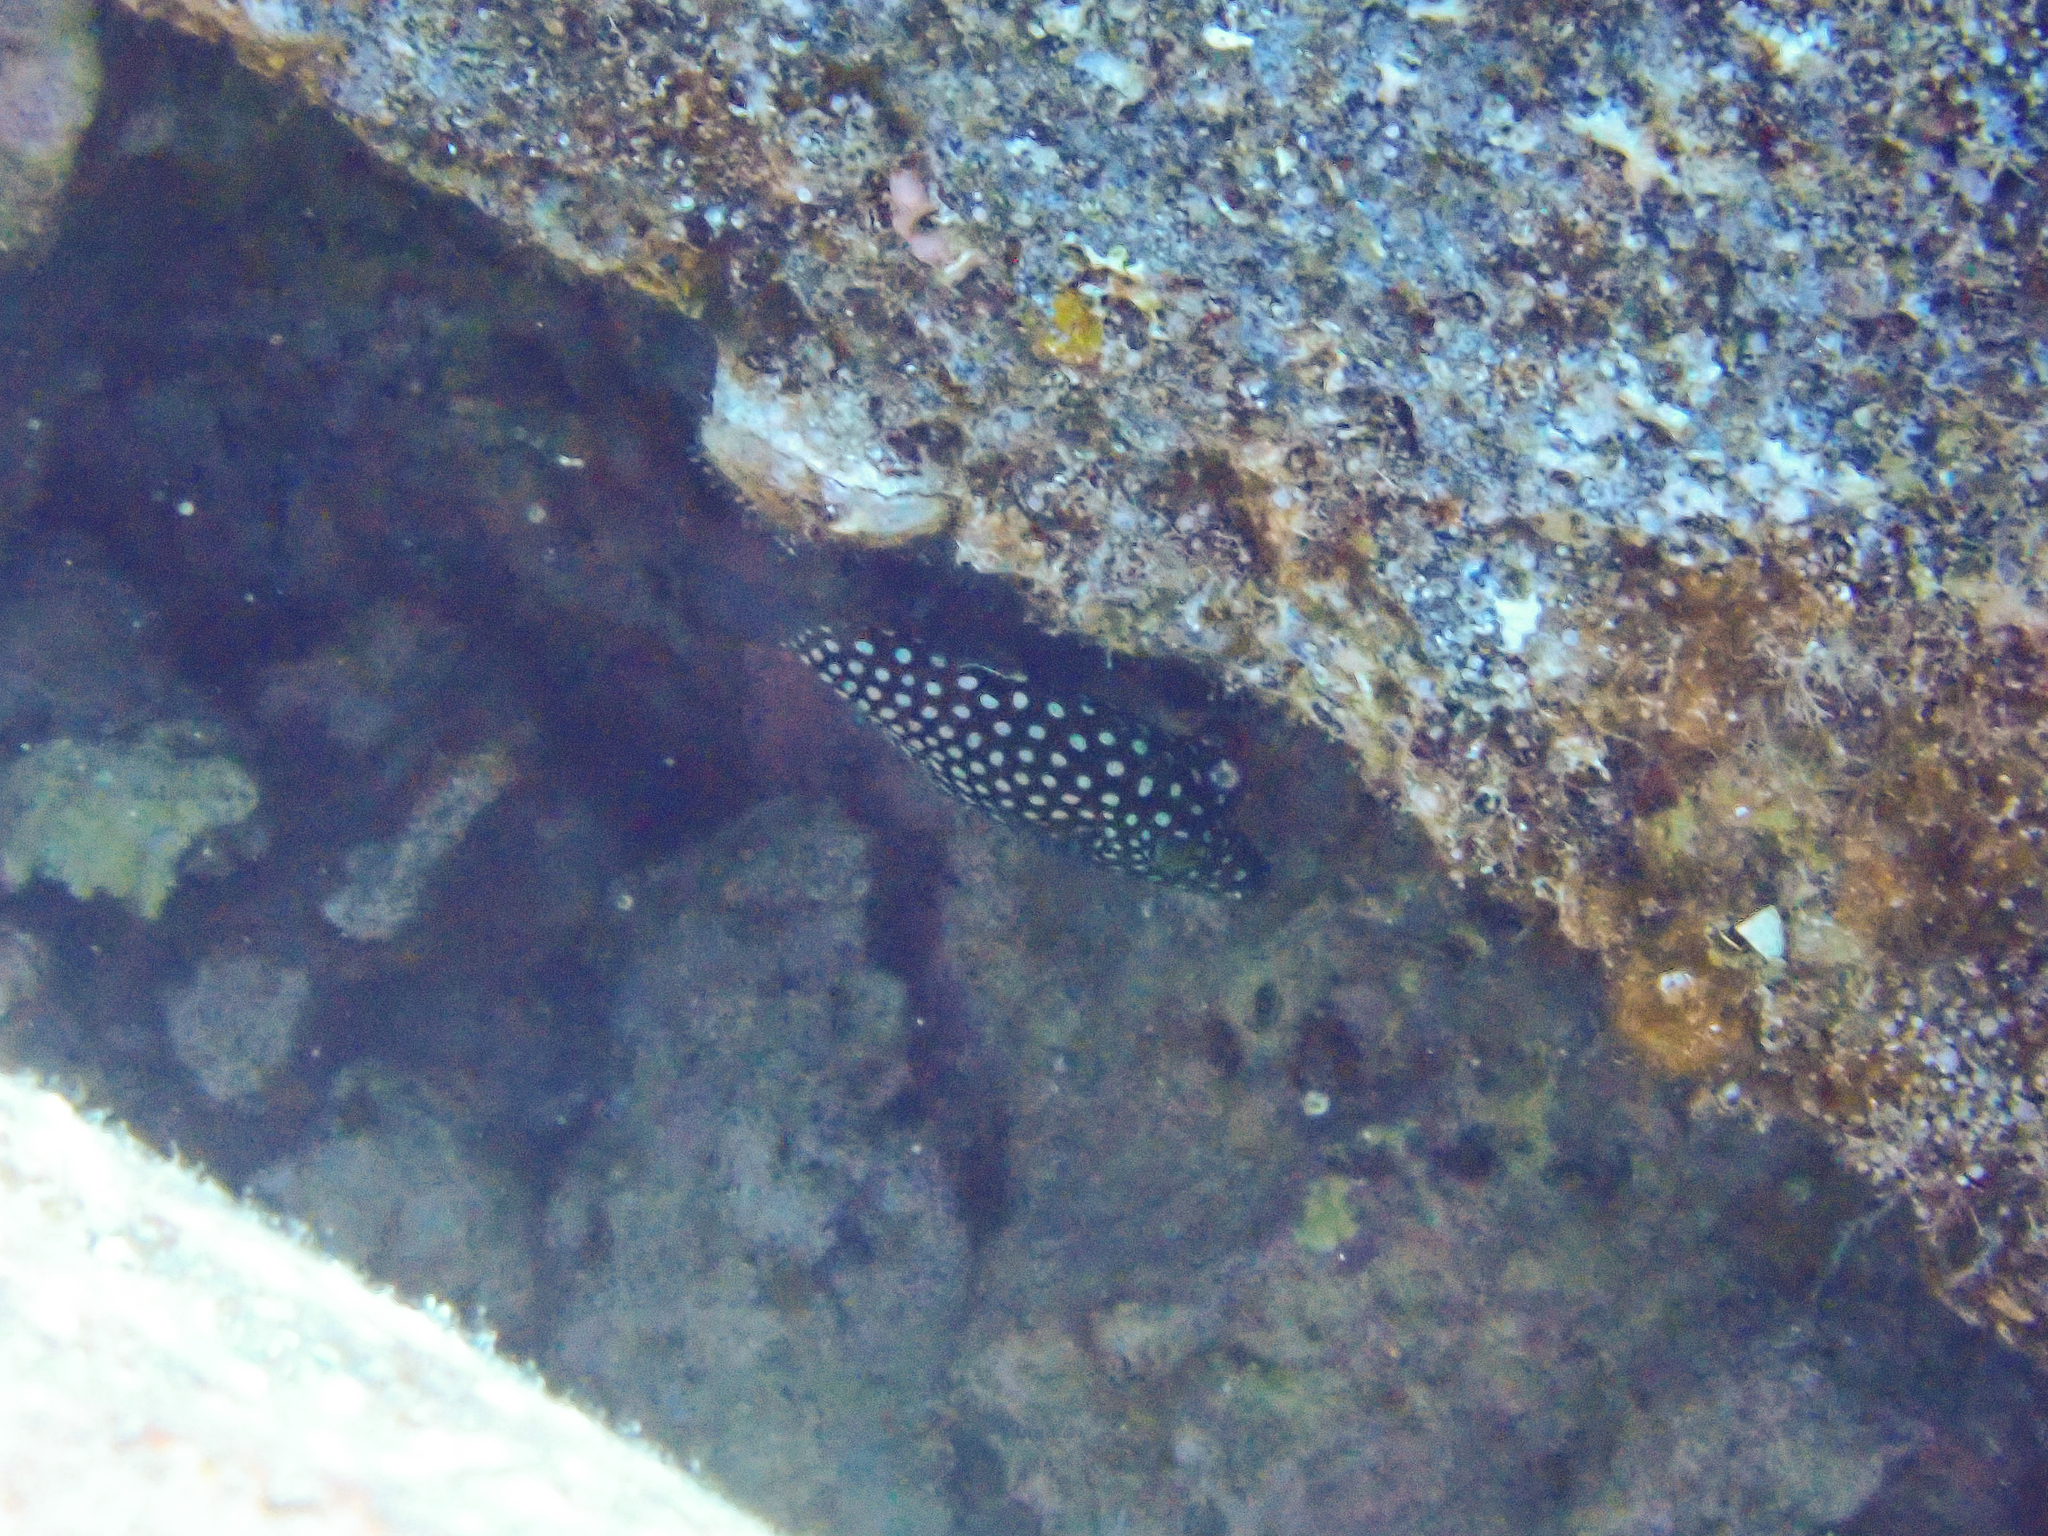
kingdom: Animalia
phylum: Chordata
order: Tetraodontiformes
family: Tetraodontidae
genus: Canthigaster
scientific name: Canthigaster jactator
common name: Hawaiian whitespotted toby
